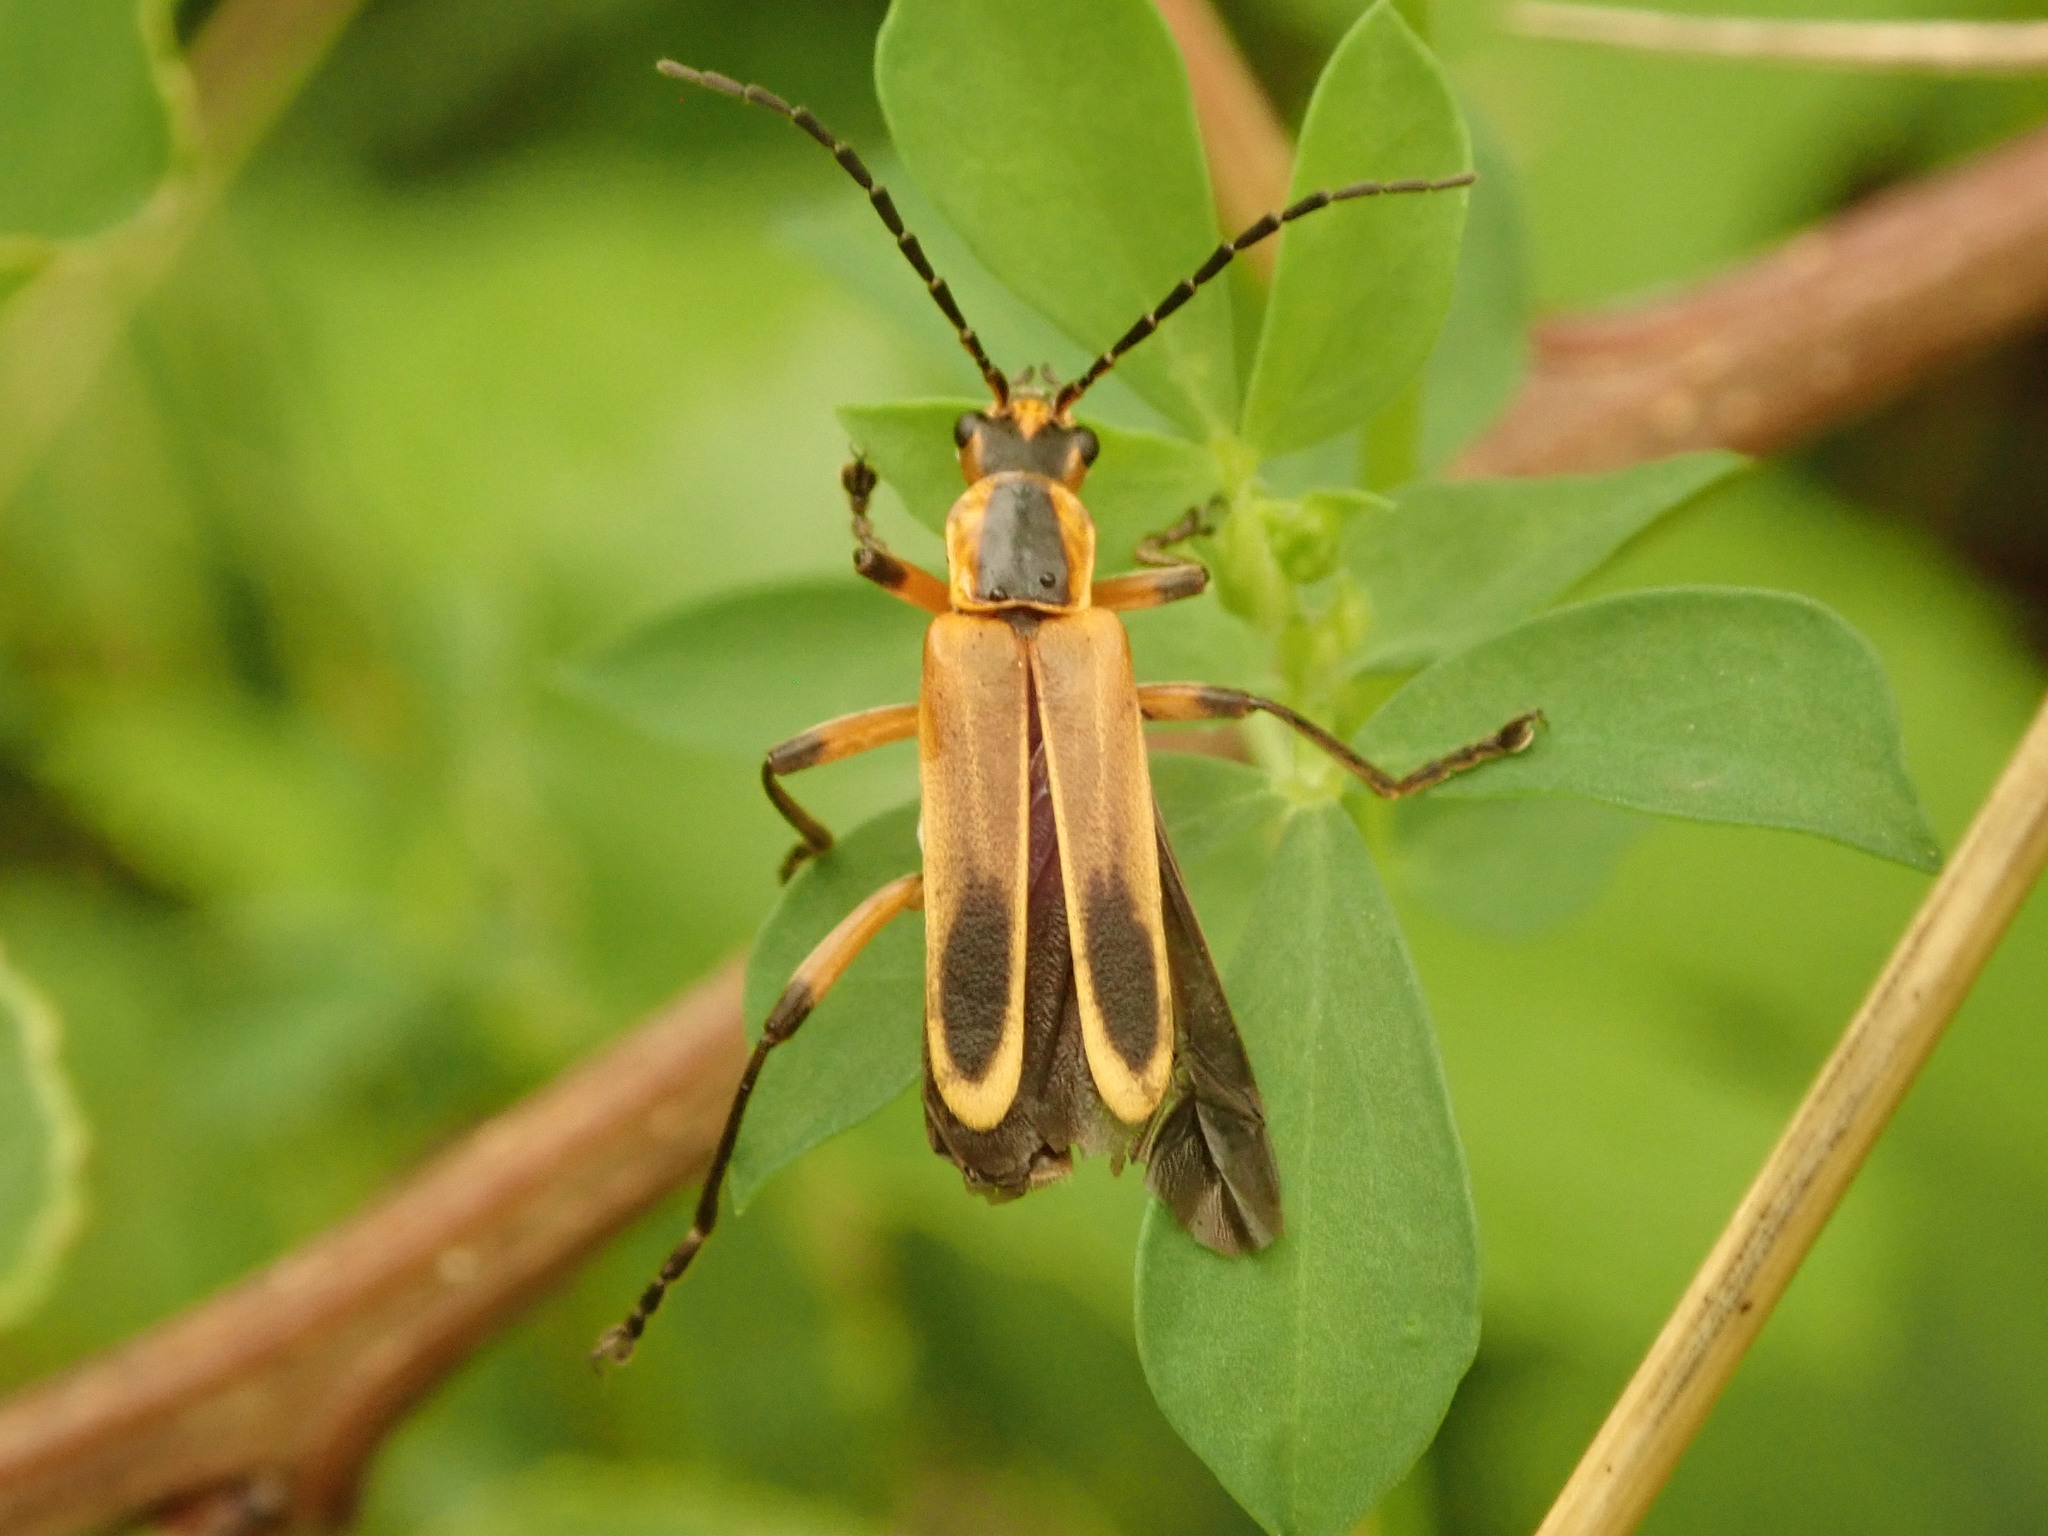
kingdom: Animalia
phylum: Arthropoda
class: Insecta
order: Coleoptera
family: Cantharidae
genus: Chauliognathus
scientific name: Chauliognathus marginatus
